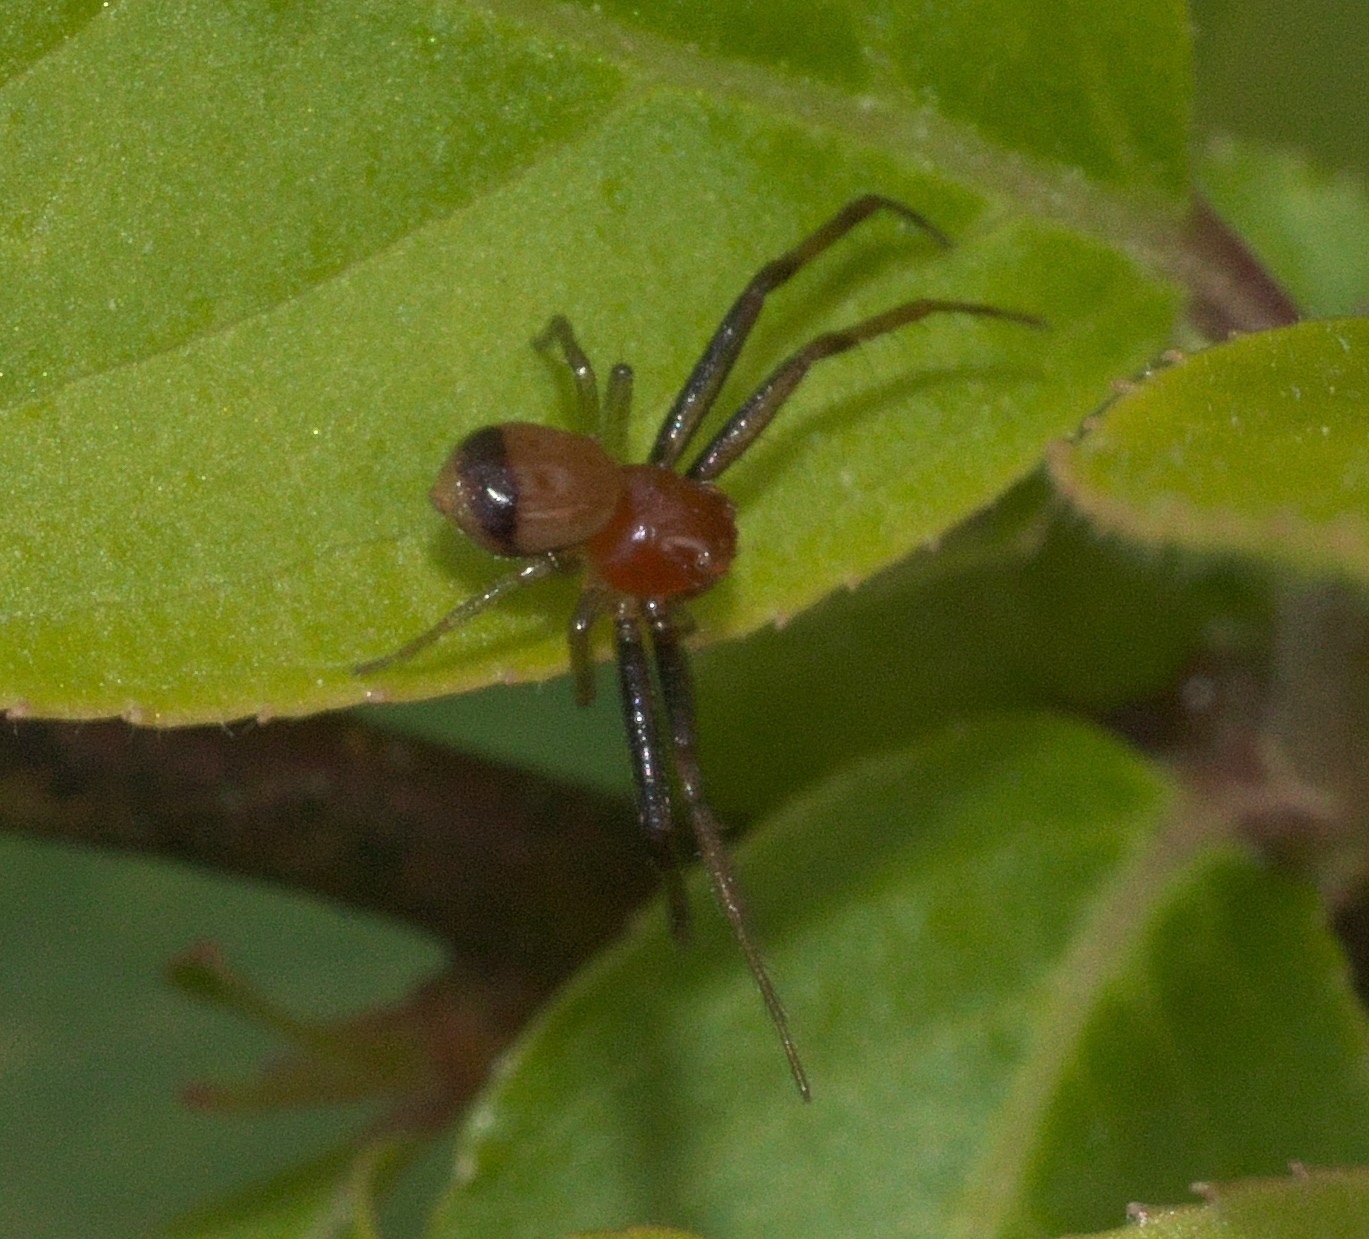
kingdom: Animalia
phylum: Arthropoda
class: Arachnida
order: Araneae
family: Thomisidae
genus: Synema
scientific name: Synema parvulum
